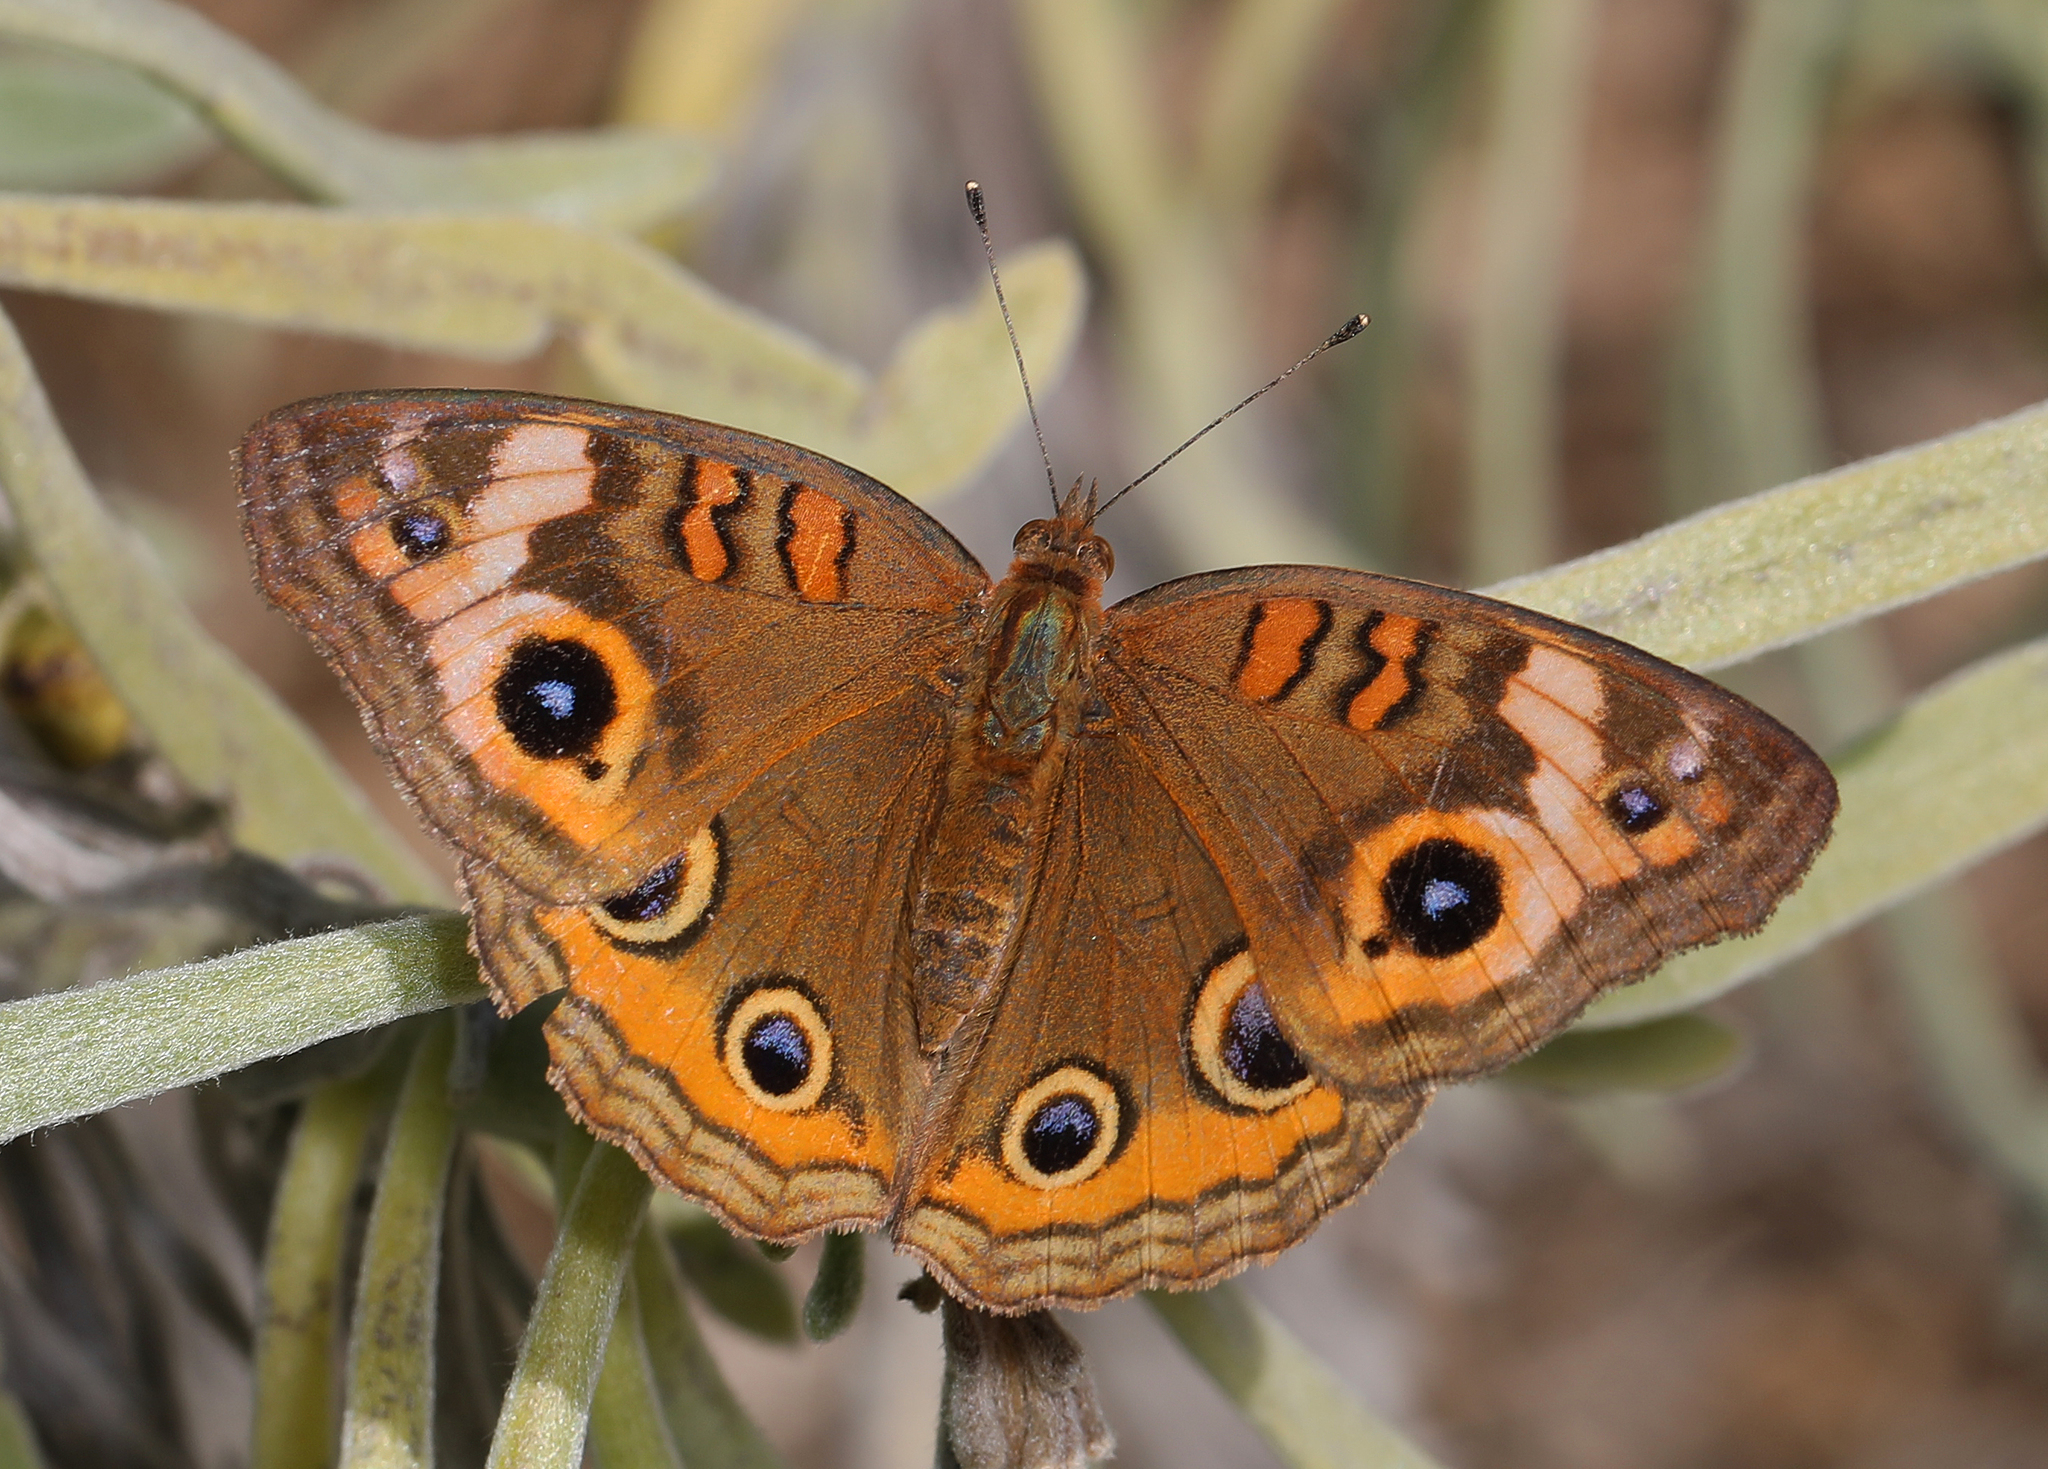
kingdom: Animalia
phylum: Arthropoda
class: Insecta
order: Lepidoptera
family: Nymphalidae
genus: Junonia
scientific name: Junonia neildi
